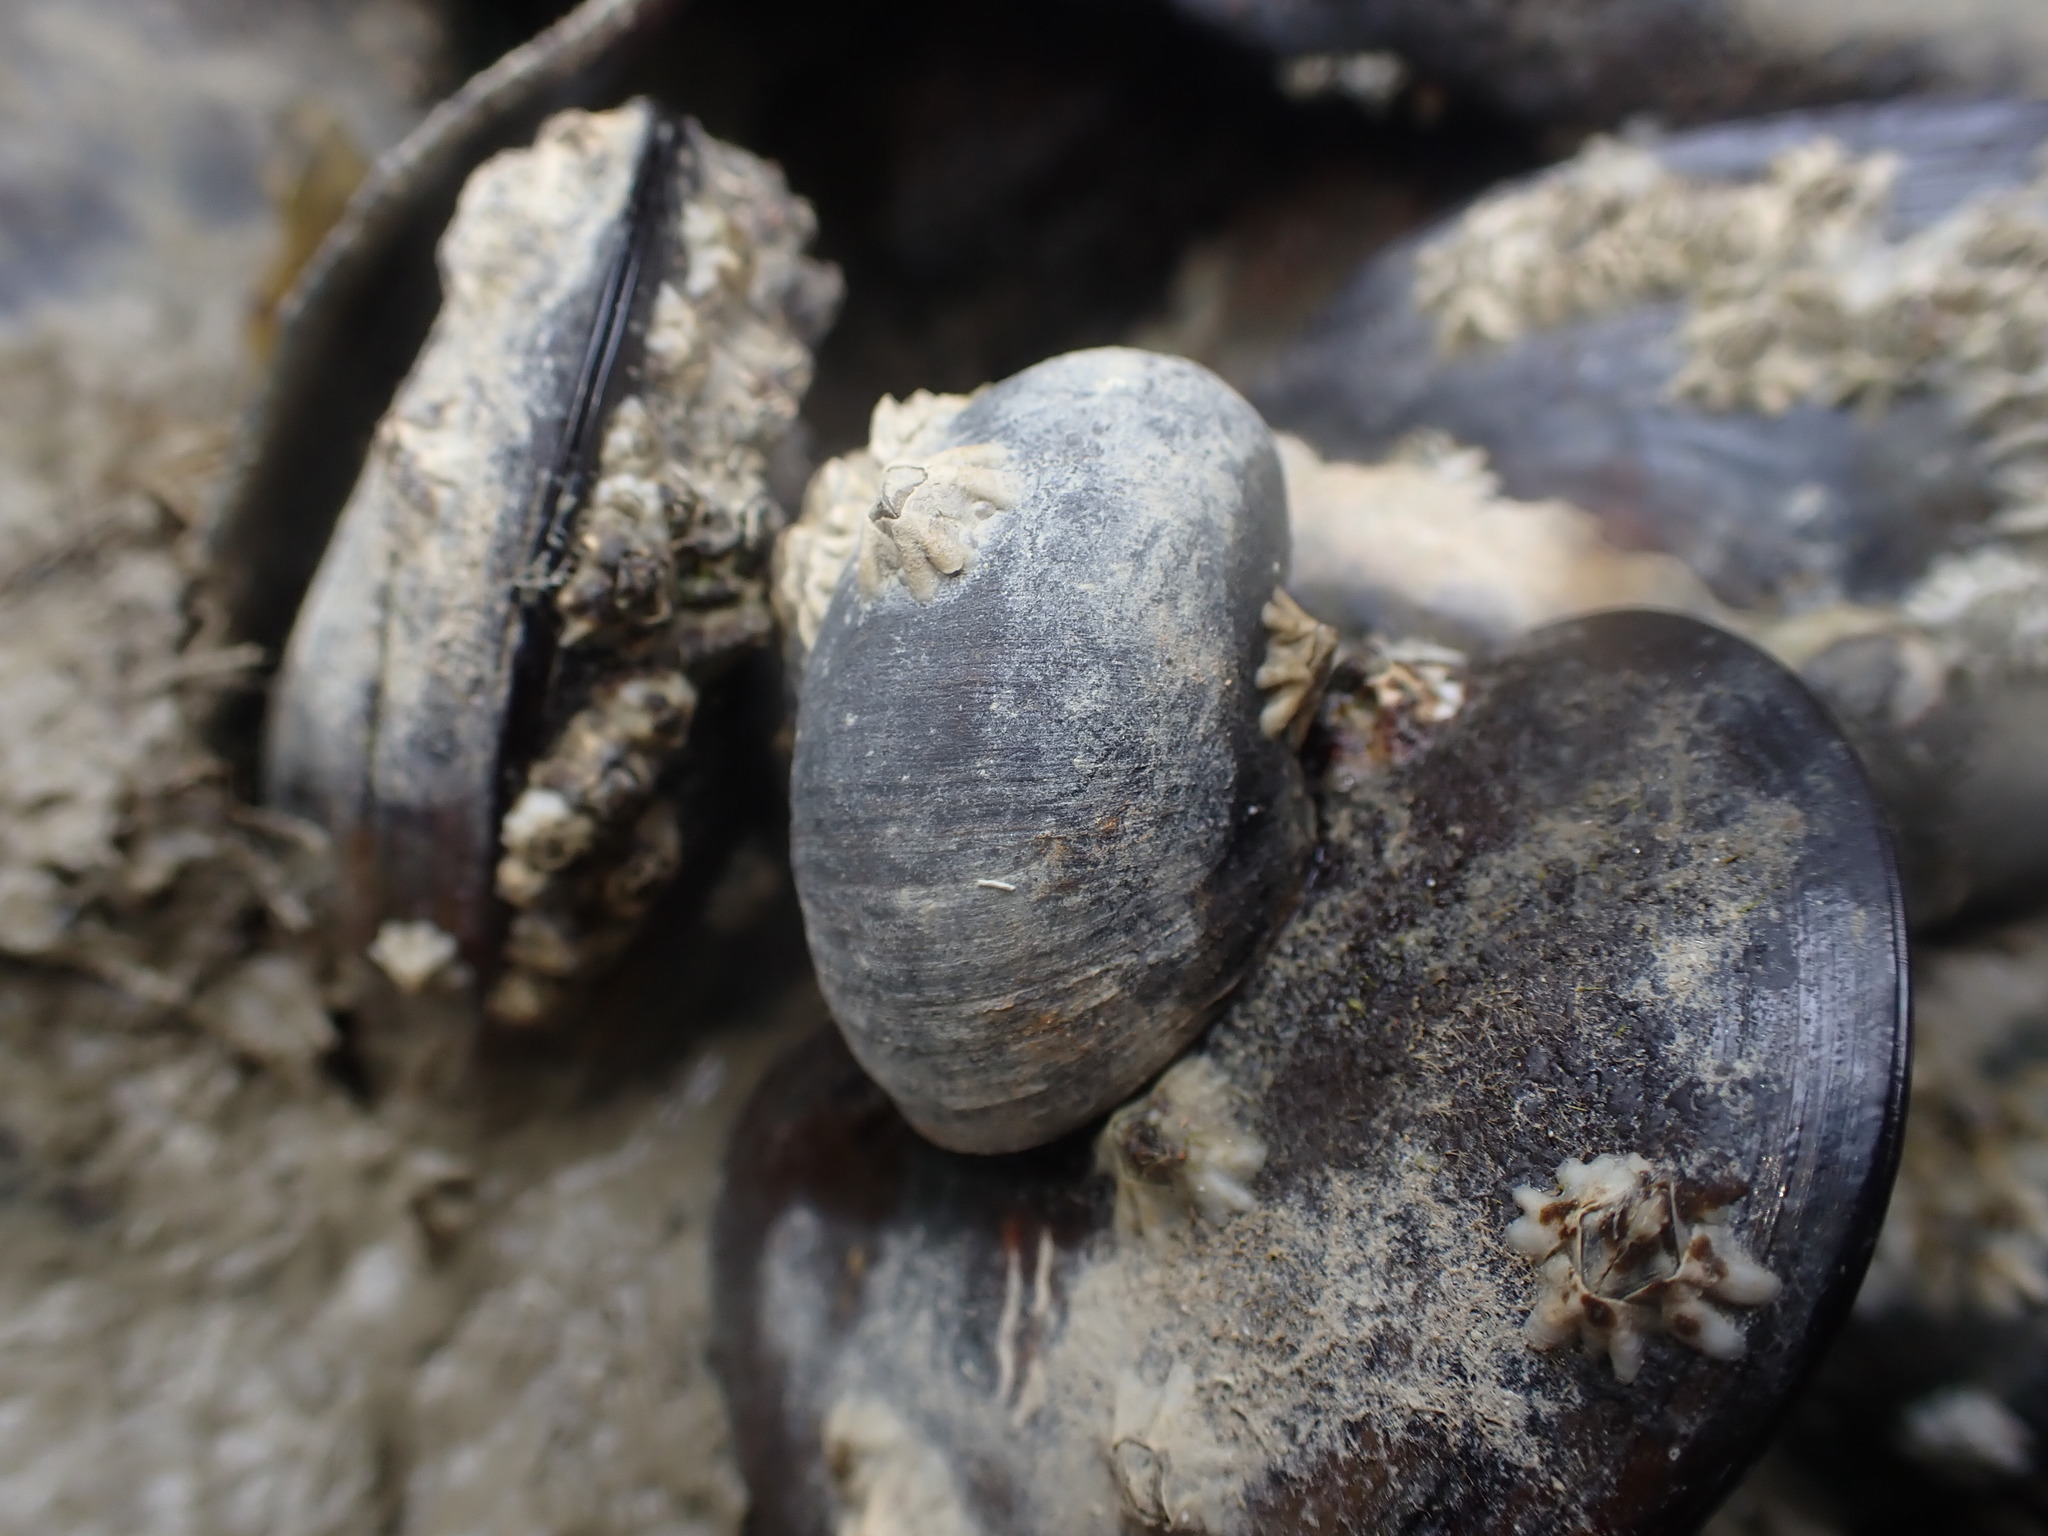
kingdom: Animalia
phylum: Mollusca
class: Gastropoda
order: Trochida
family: Turbinidae
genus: Lunella
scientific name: Lunella smaragda
